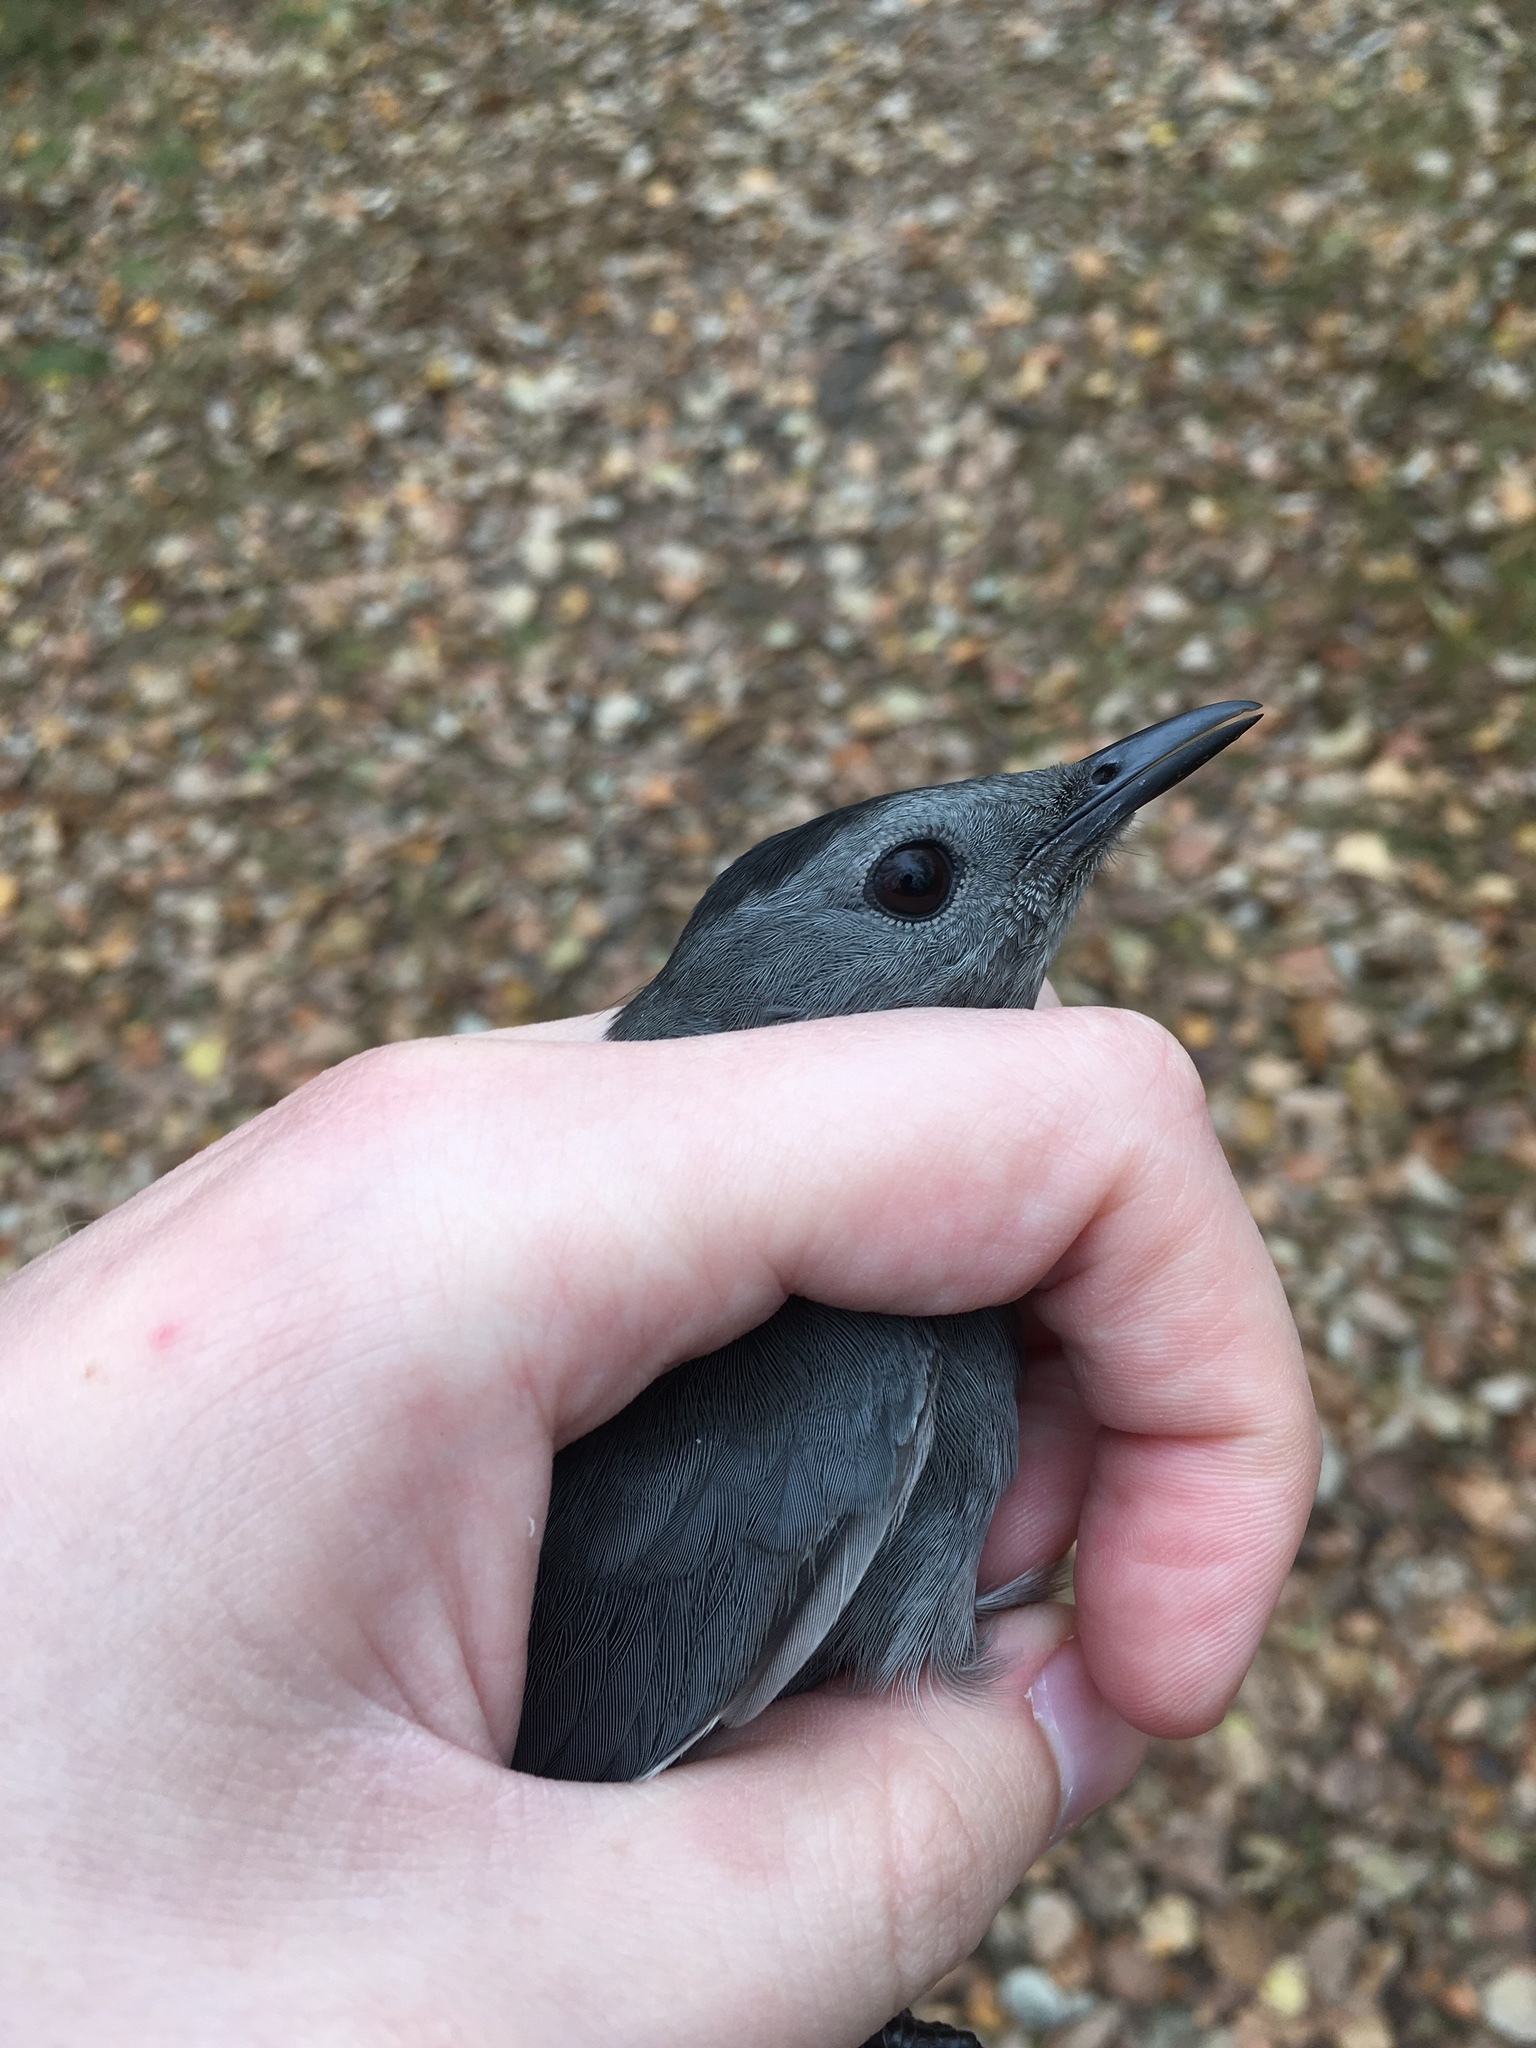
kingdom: Animalia
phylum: Chordata
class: Aves
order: Passeriformes
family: Mimidae
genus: Dumetella
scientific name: Dumetella carolinensis
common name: Gray catbird
